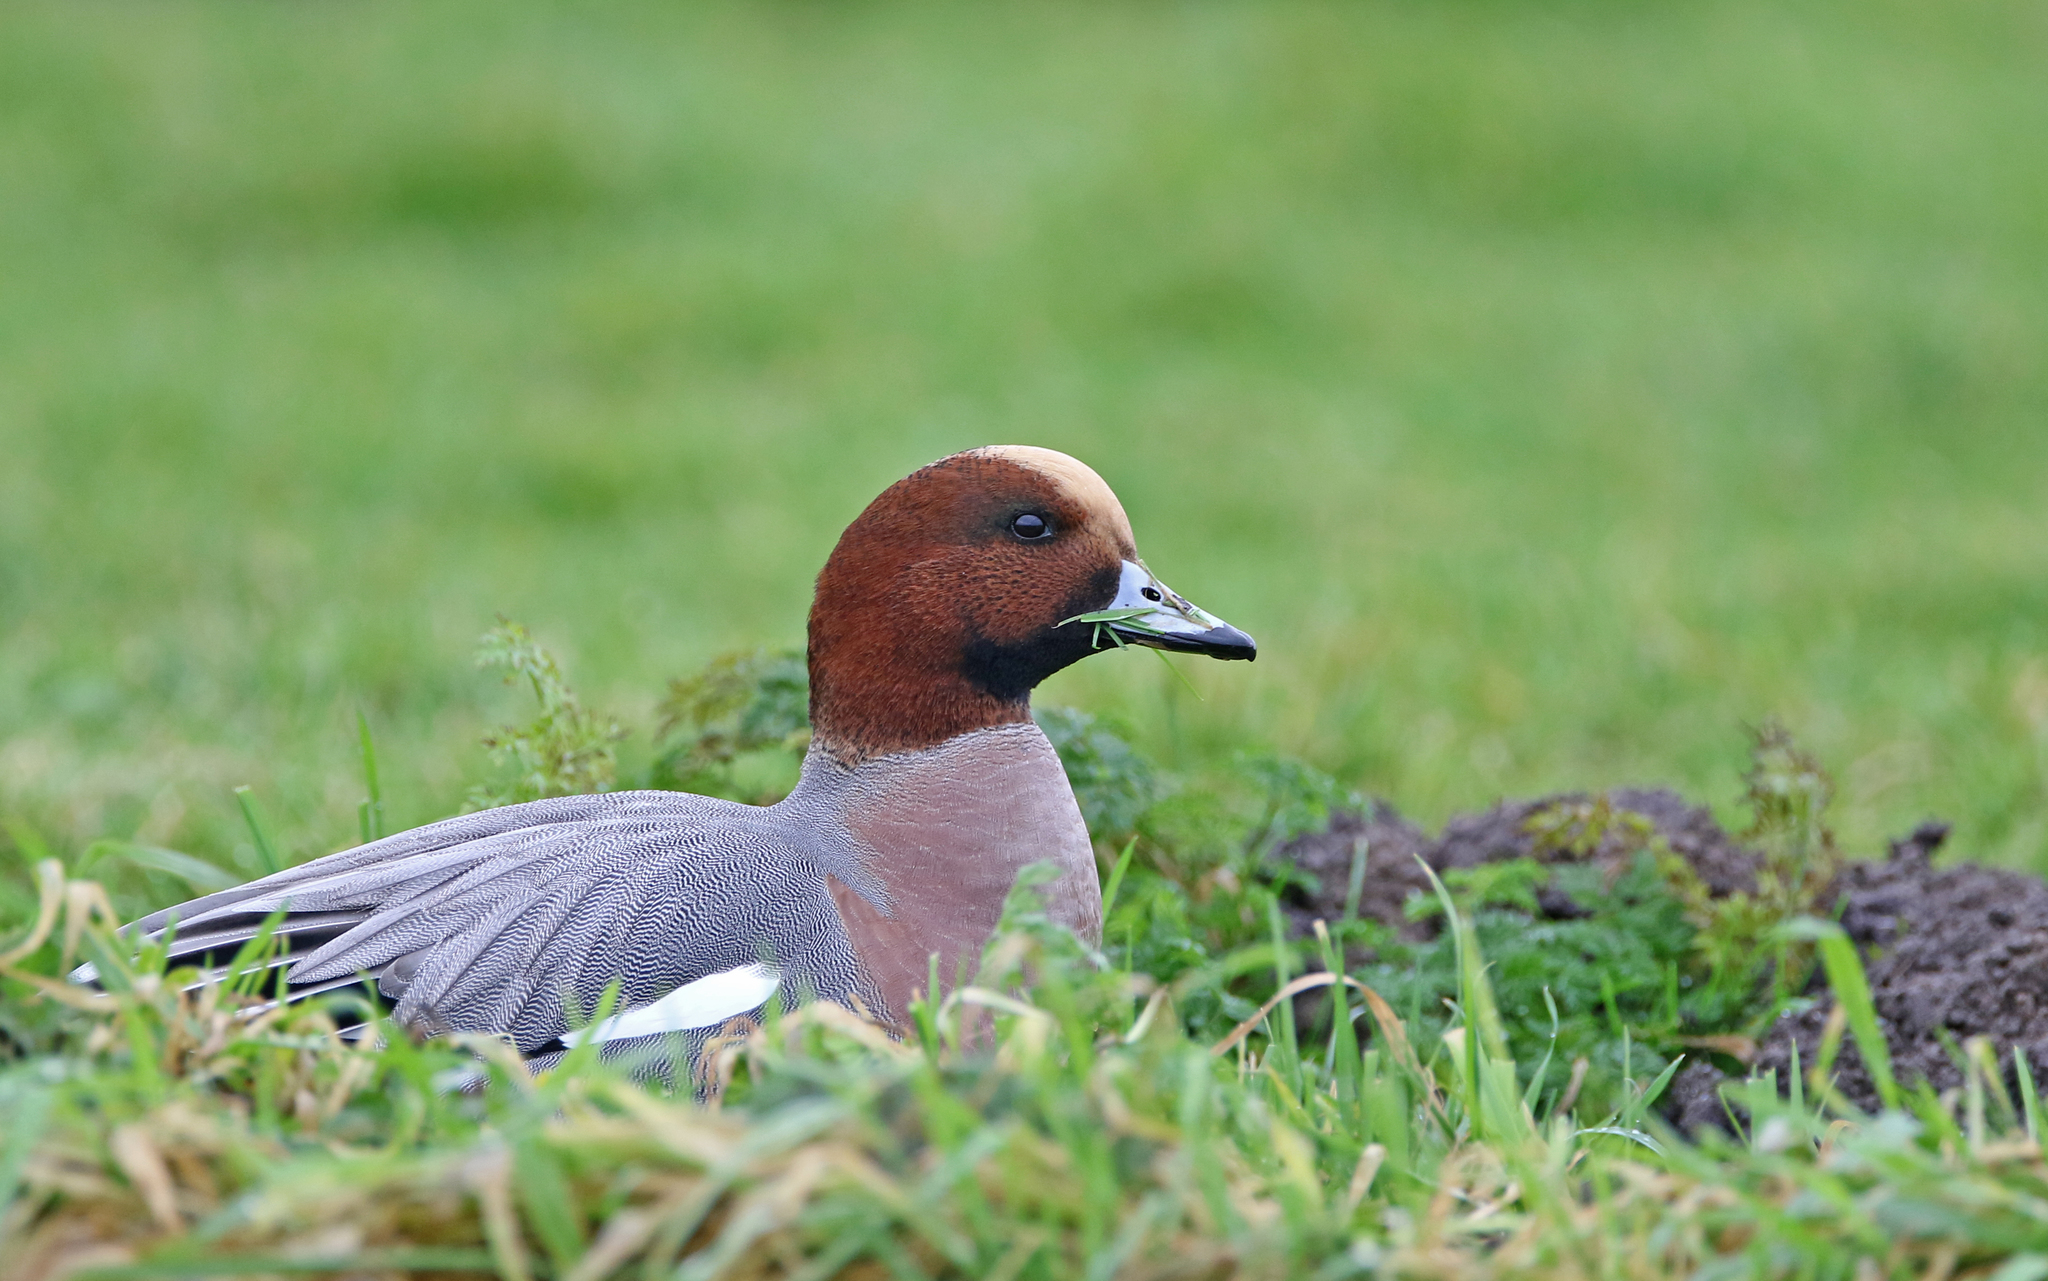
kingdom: Animalia
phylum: Chordata
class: Aves
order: Anseriformes
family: Anatidae
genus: Mareca
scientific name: Mareca penelope
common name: Eurasian wigeon
